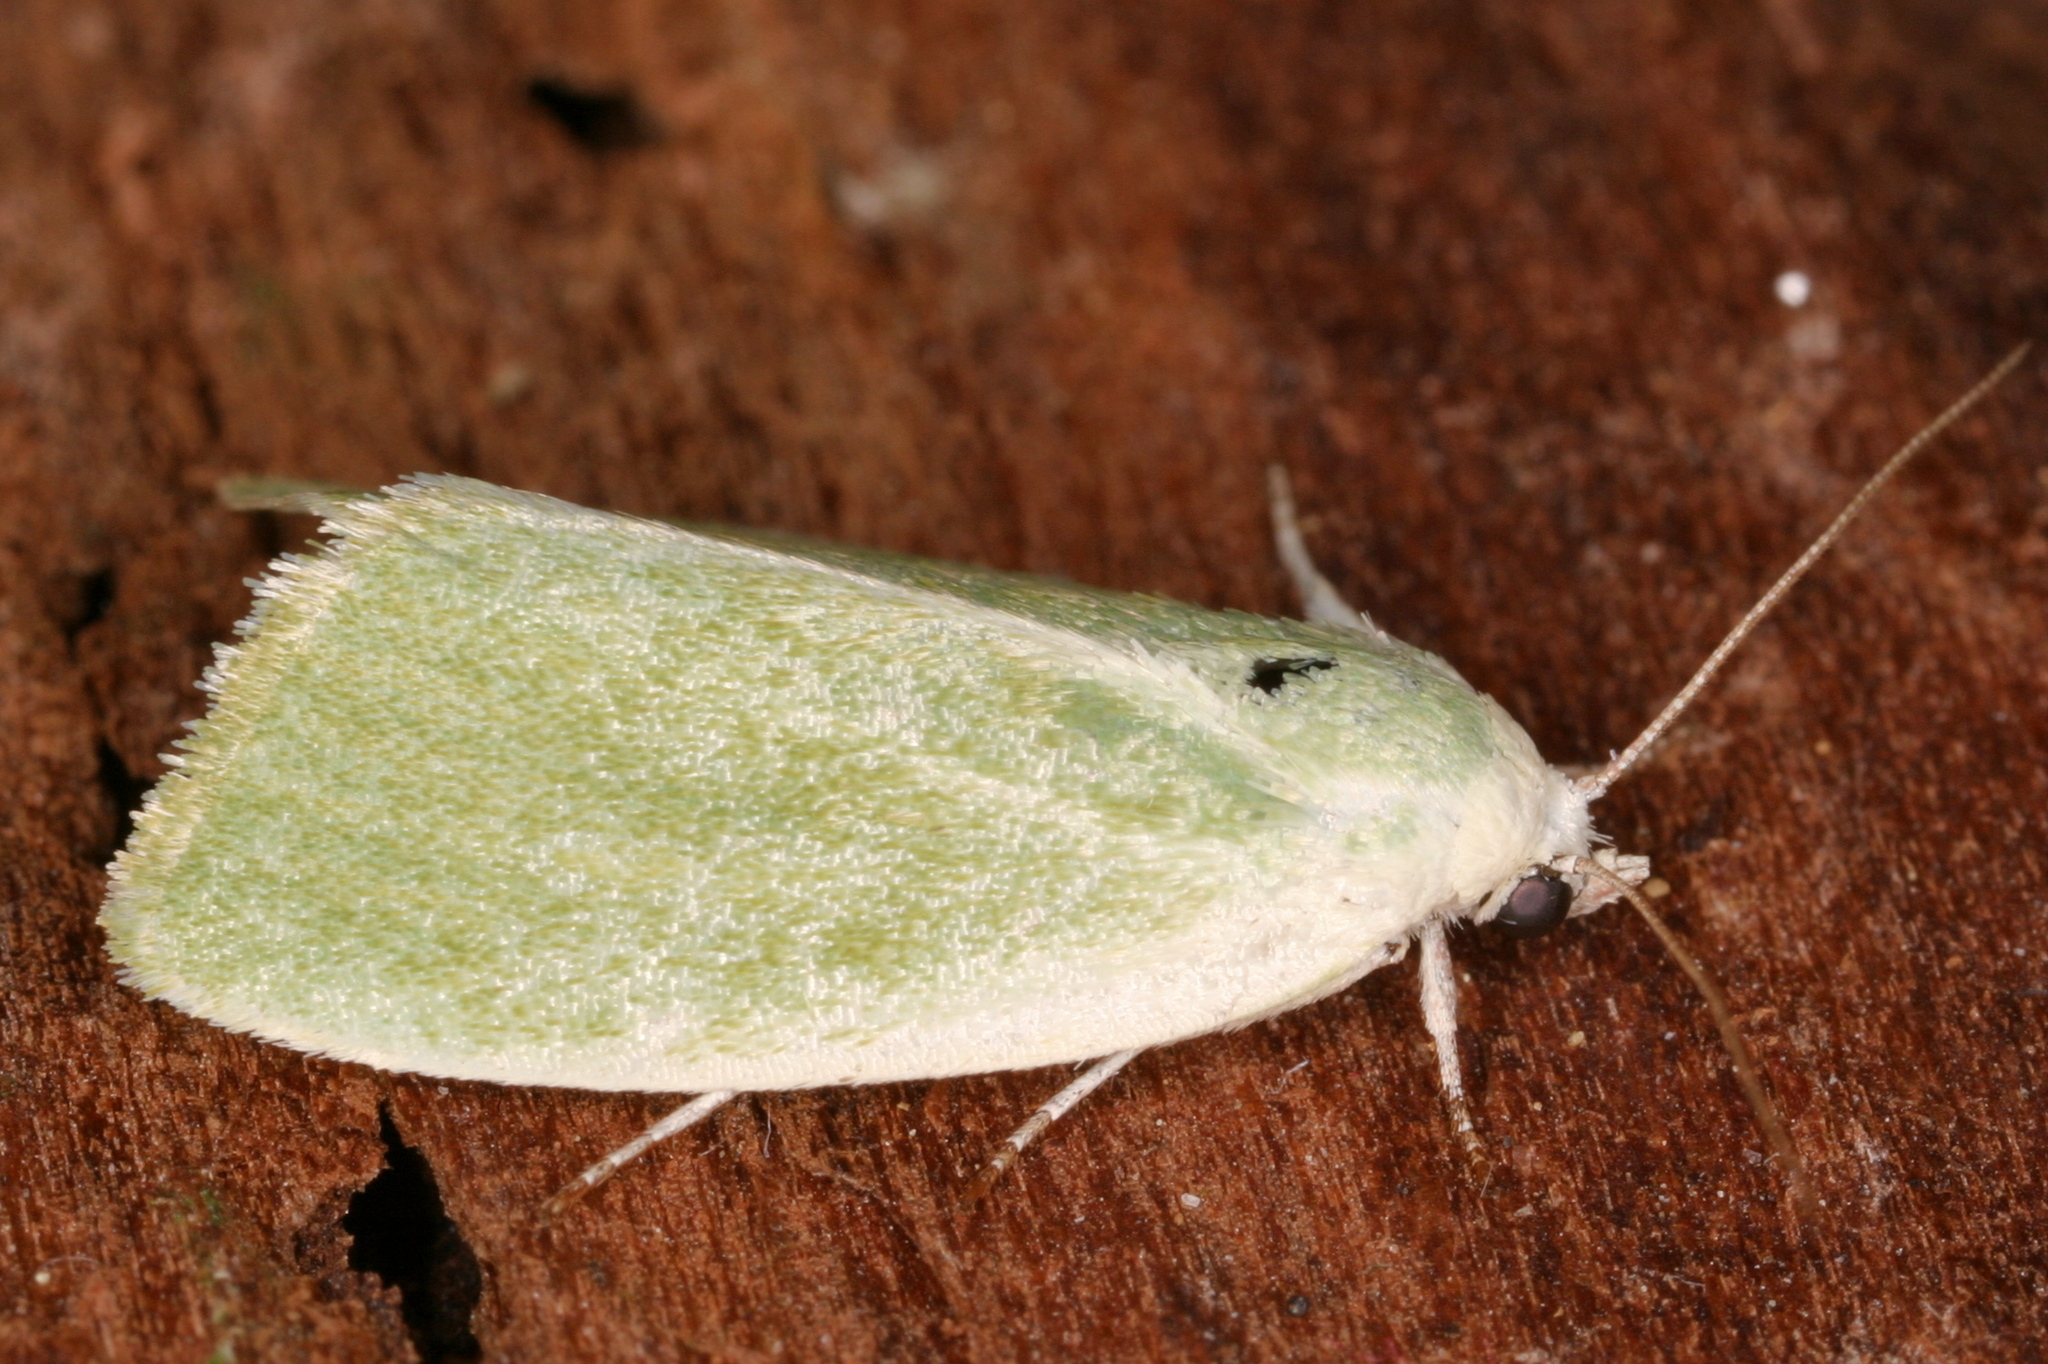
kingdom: Animalia
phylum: Arthropoda
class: Insecta
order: Lepidoptera
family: Nolidae
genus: Earias
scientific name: Earias clorana
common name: Cream-bordered green pea
